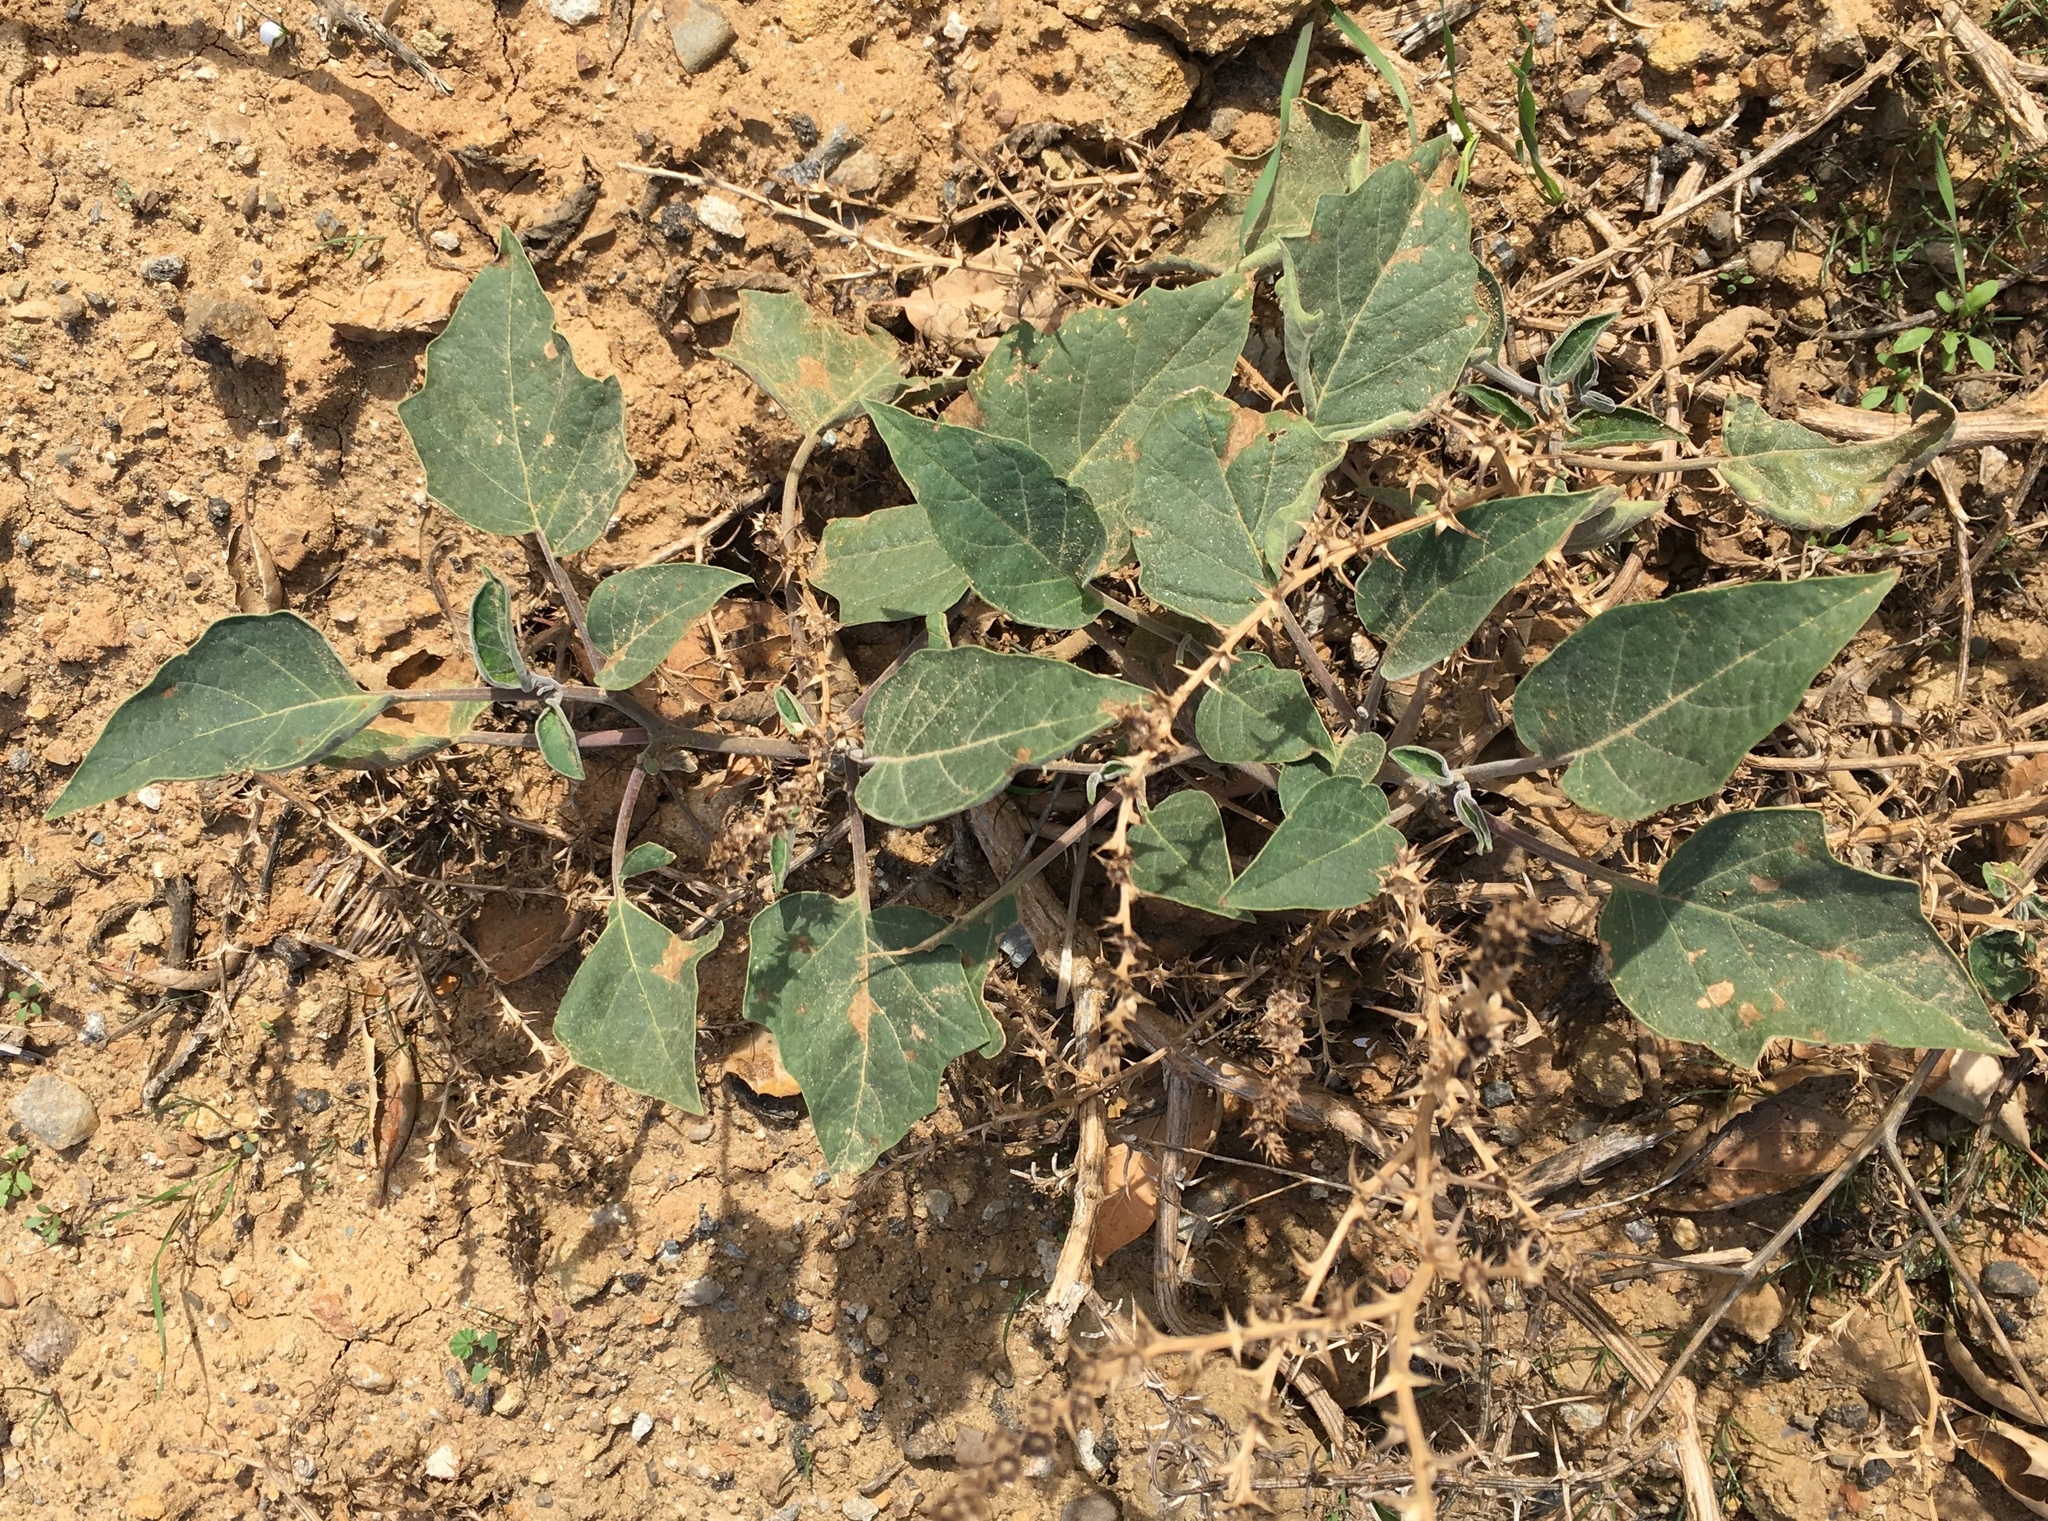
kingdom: Plantae
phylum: Tracheophyta
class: Magnoliopsida
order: Solanales
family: Solanaceae
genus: Datura
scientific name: Datura wrightii
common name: Sacred thorn-apple
